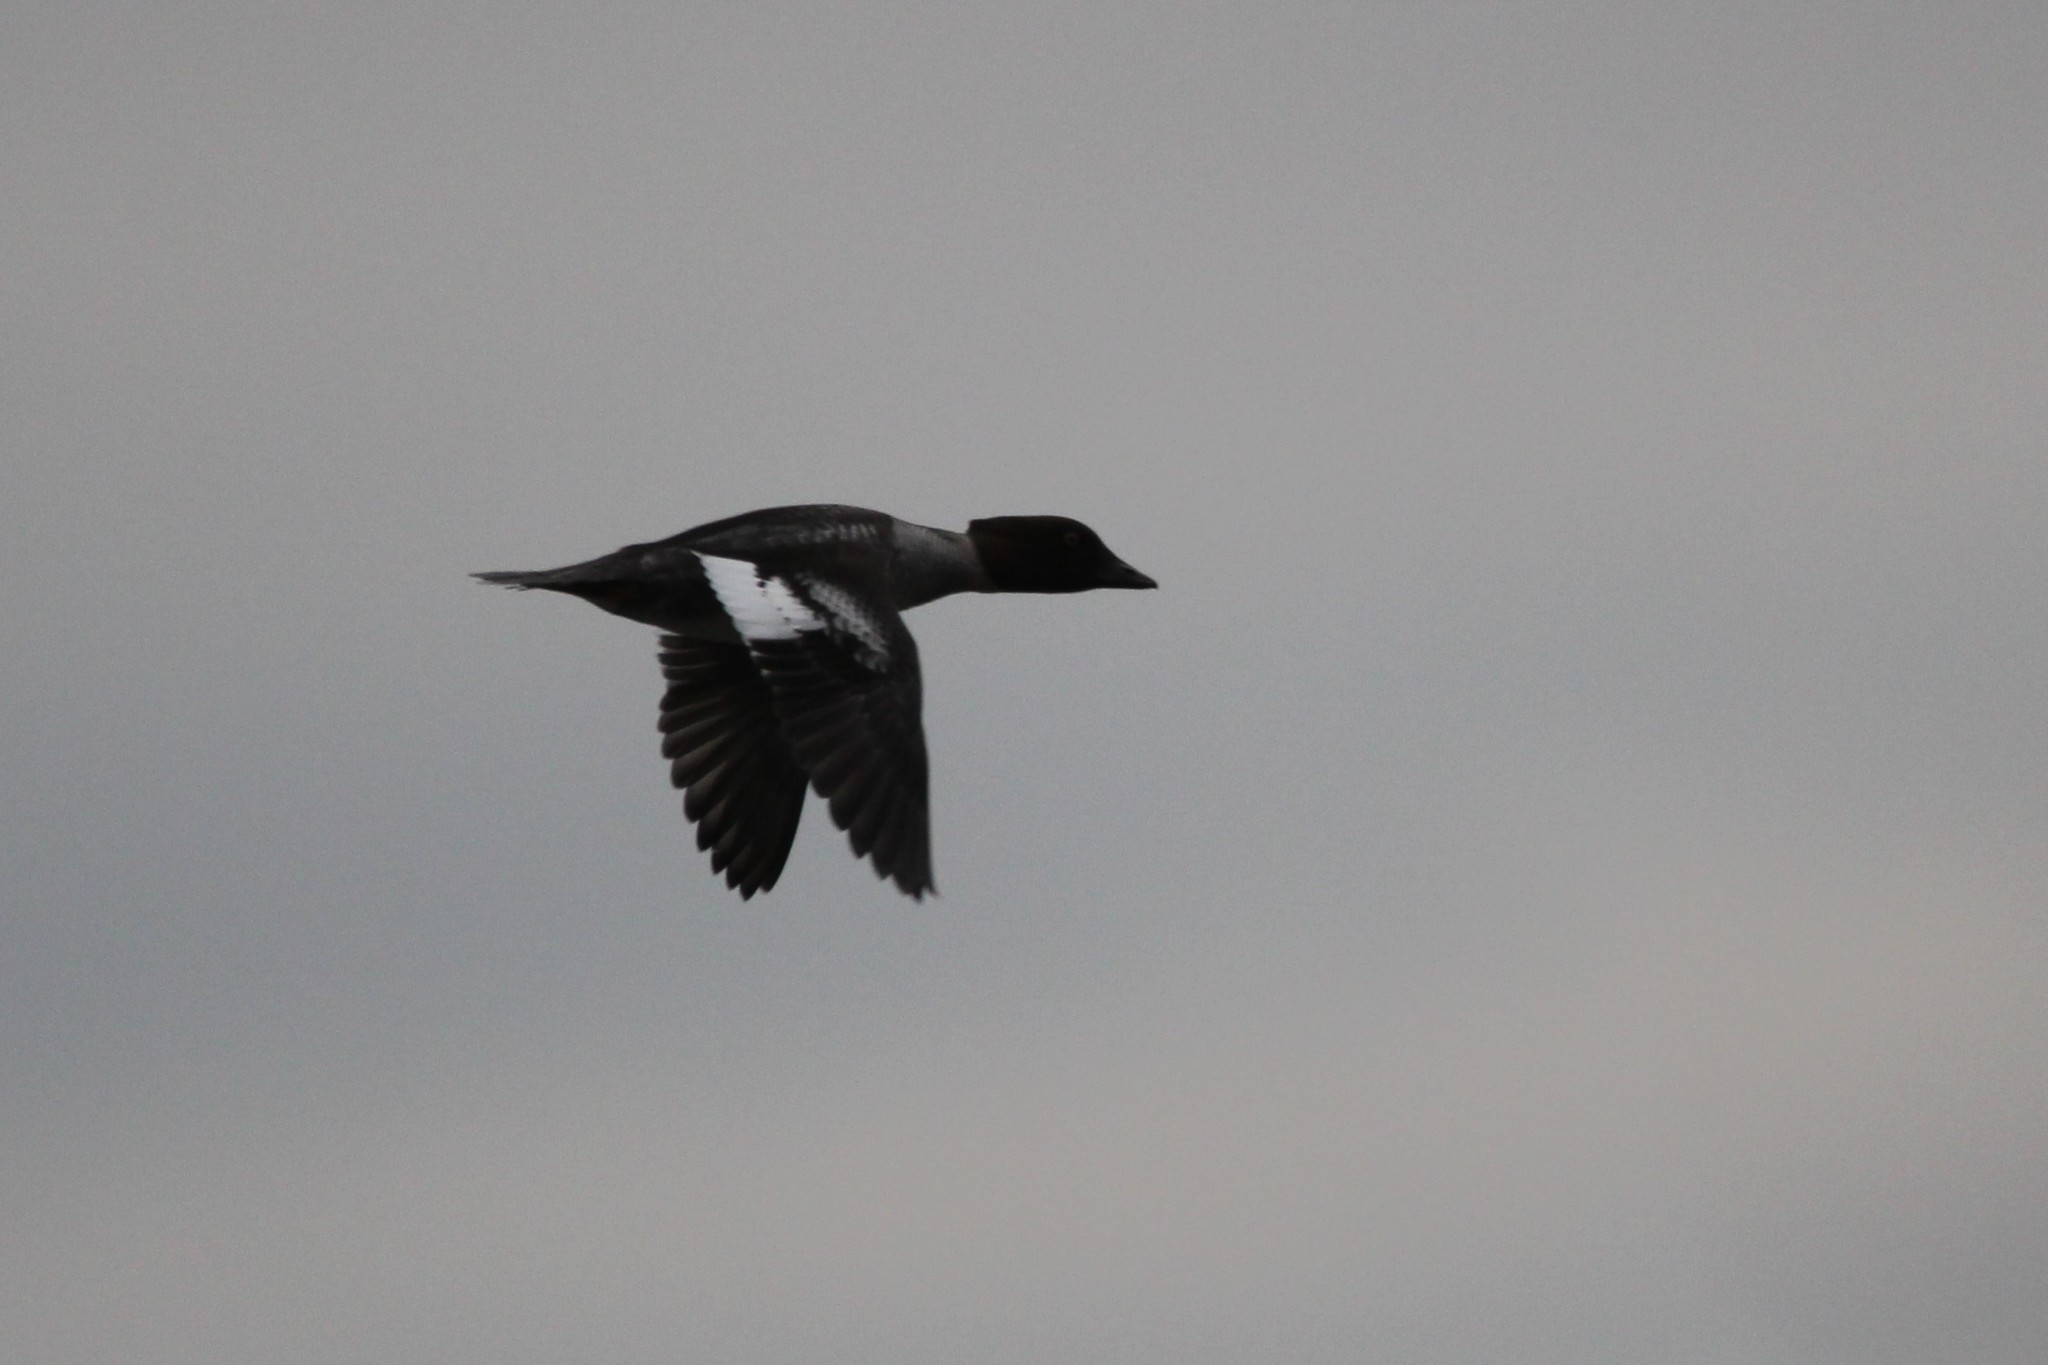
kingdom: Animalia
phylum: Chordata
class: Aves
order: Anseriformes
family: Anatidae
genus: Bucephala
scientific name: Bucephala clangula
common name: Common goldeneye
